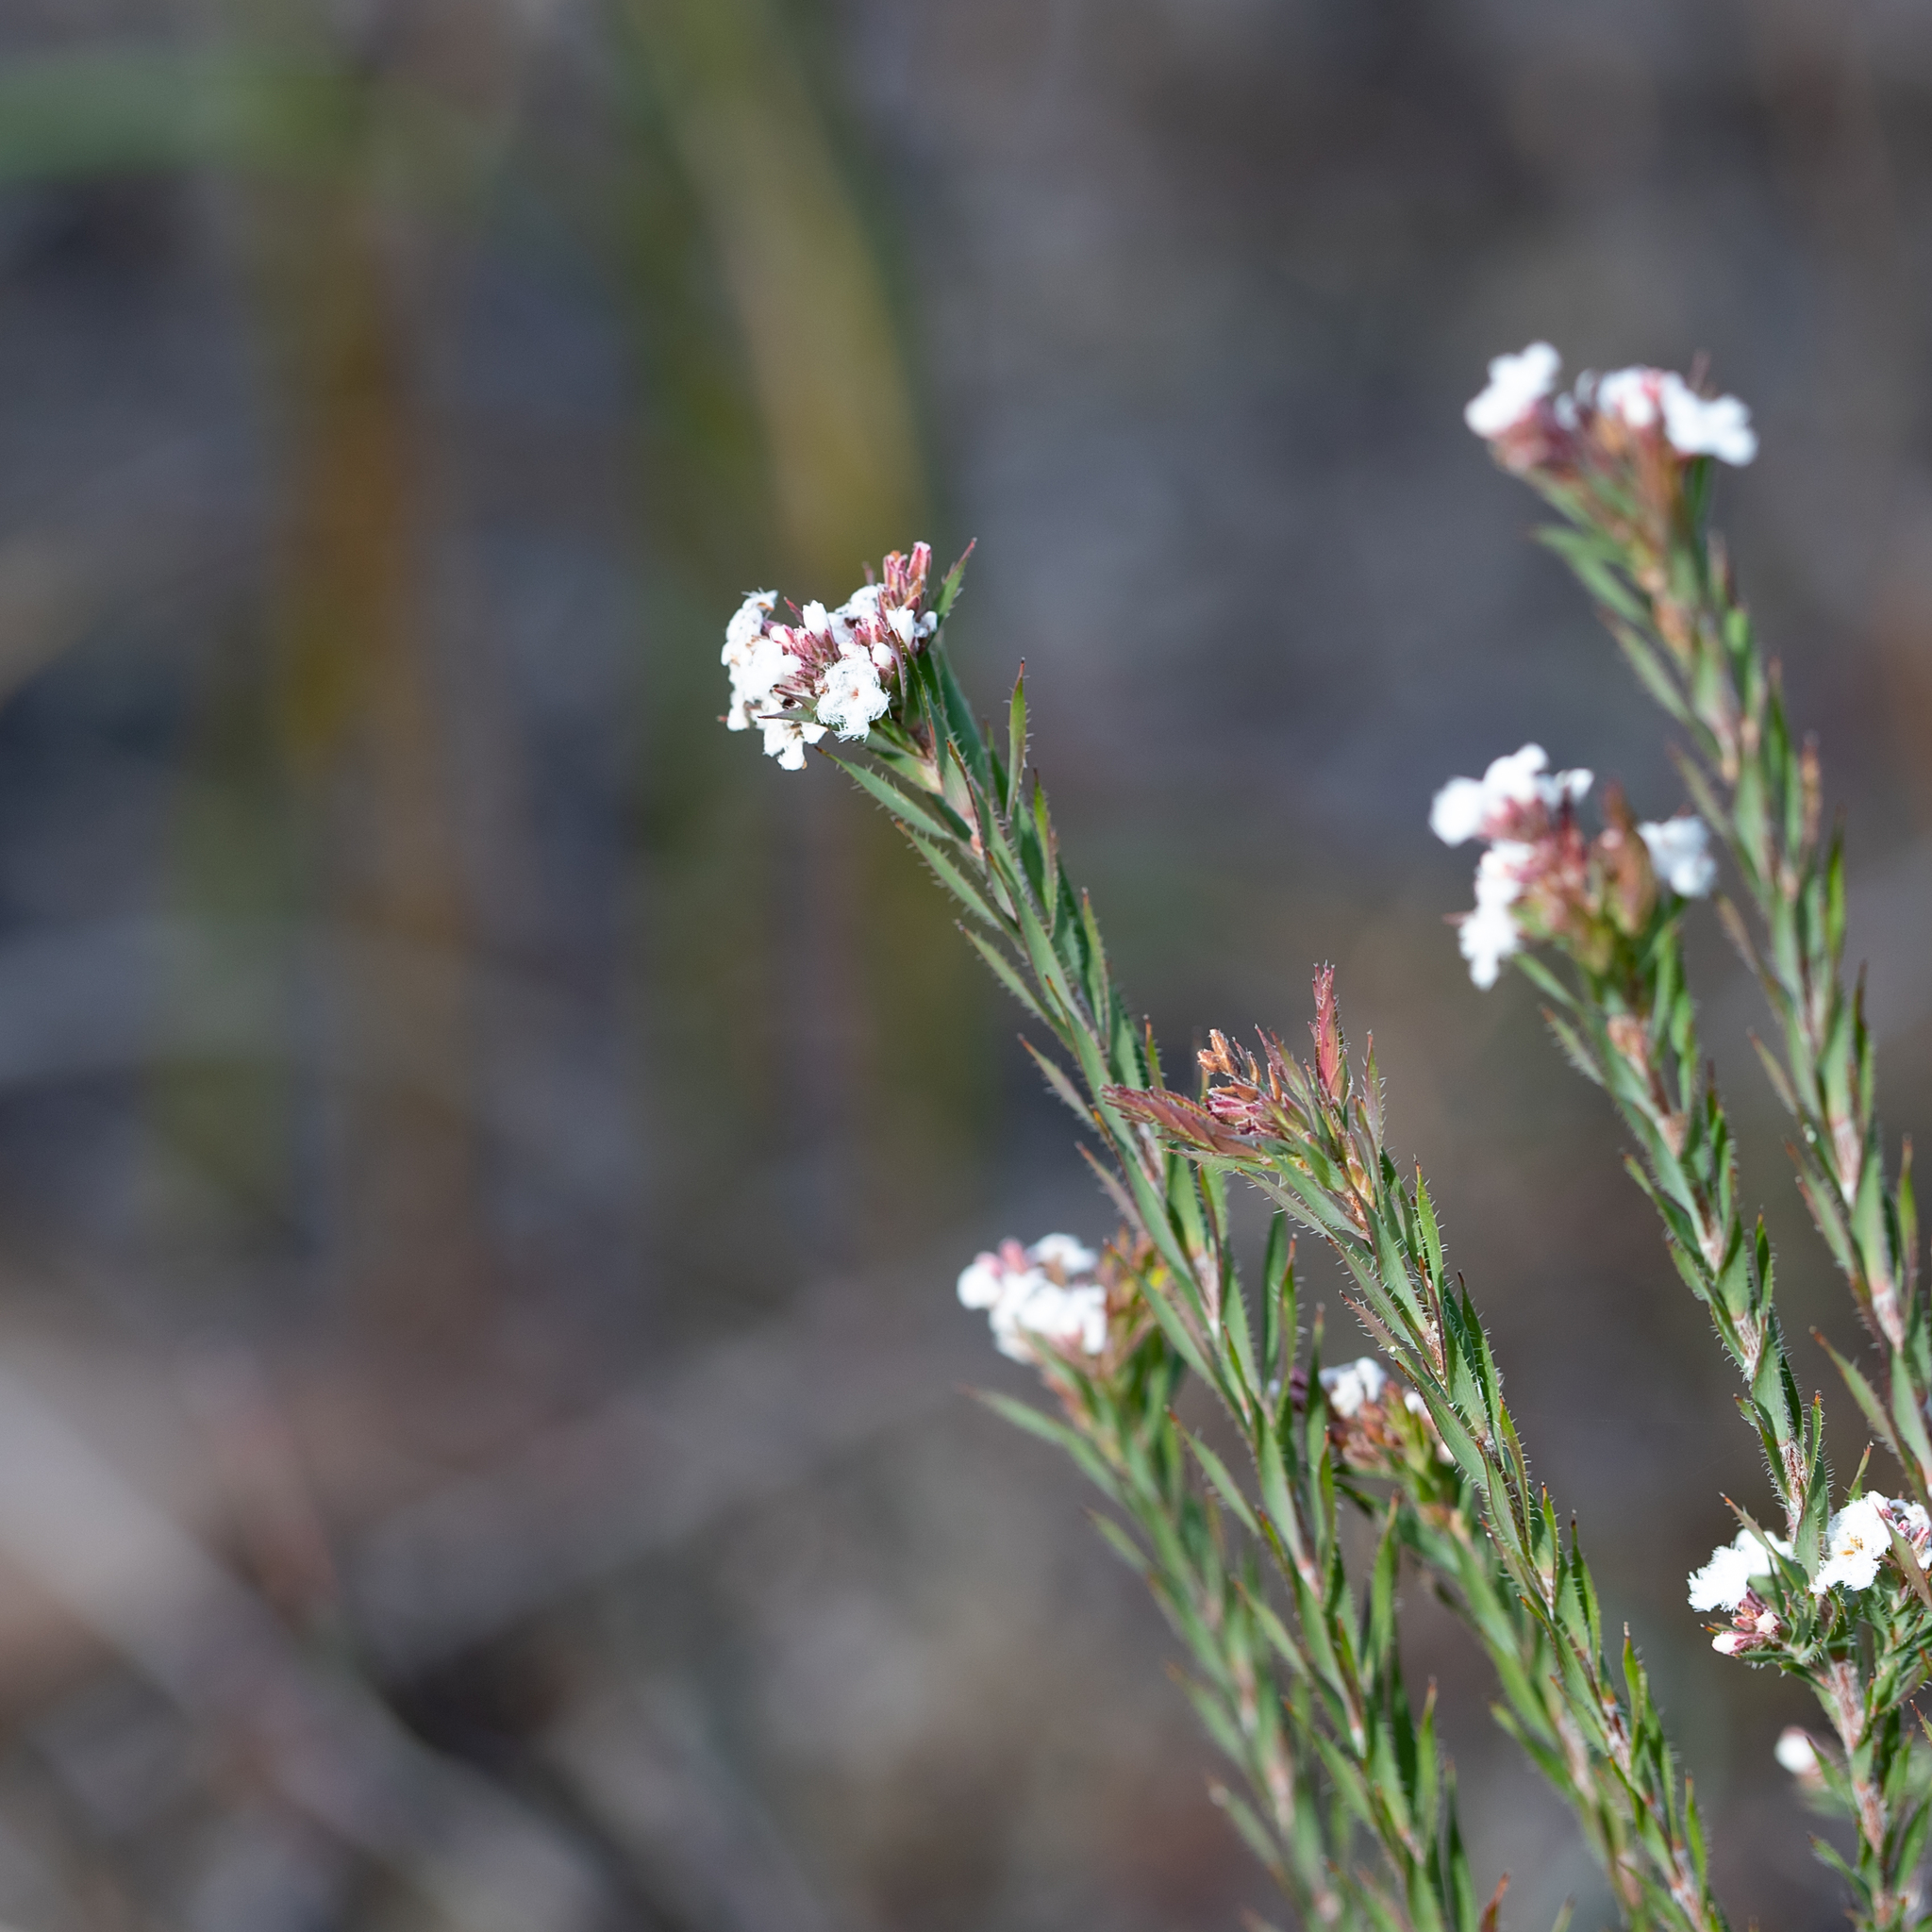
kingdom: Plantae
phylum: Tracheophyta
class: Magnoliopsida
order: Ericales
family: Ericaceae
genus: Leucopogon
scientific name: Leucopogon glacialis
